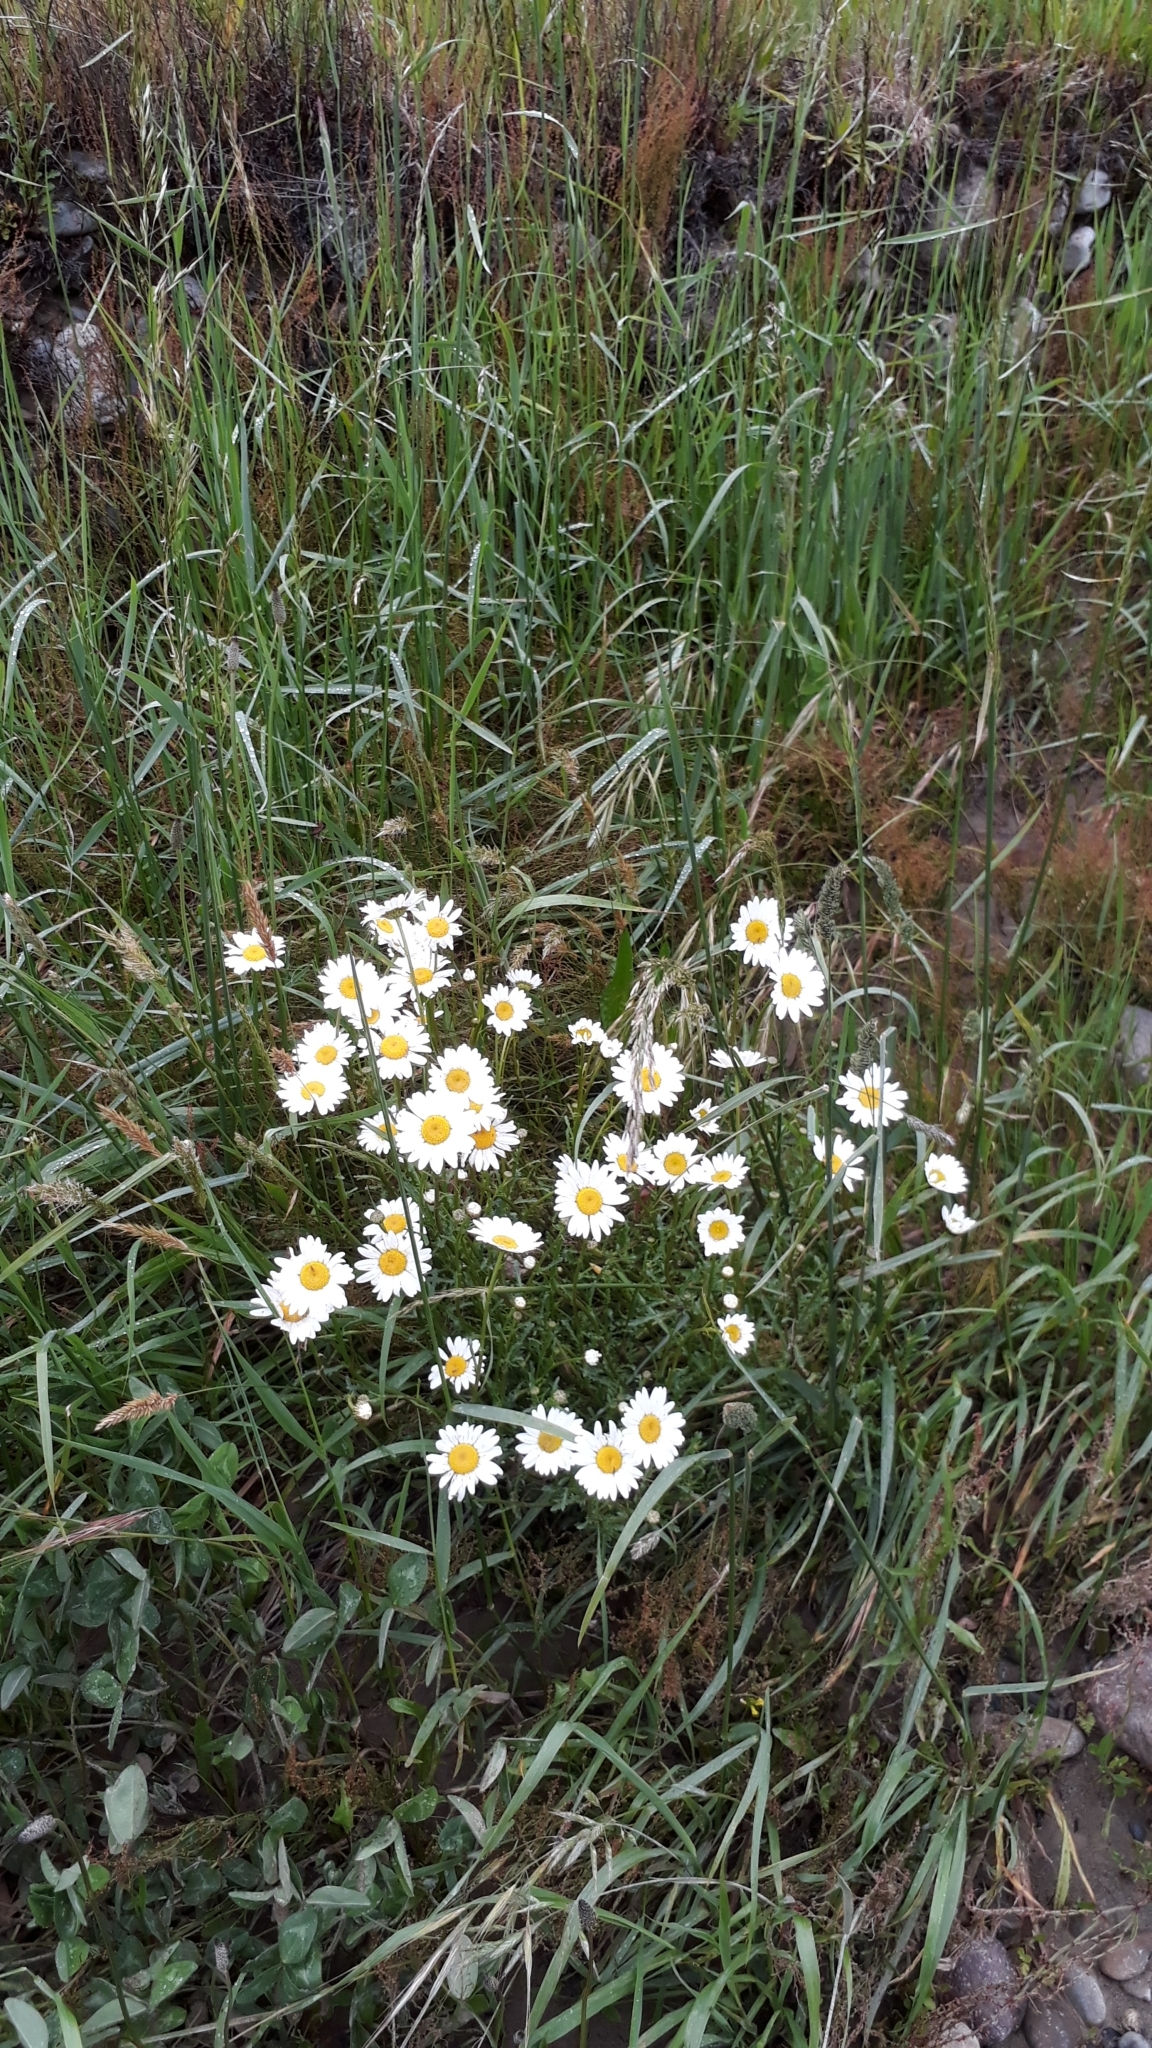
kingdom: Plantae
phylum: Tracheophyta
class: Magnoliopsida
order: Asterales
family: Asteraceae
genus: Leucanthemum
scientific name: Leucanthemum vulgare
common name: Oxeye daisy
